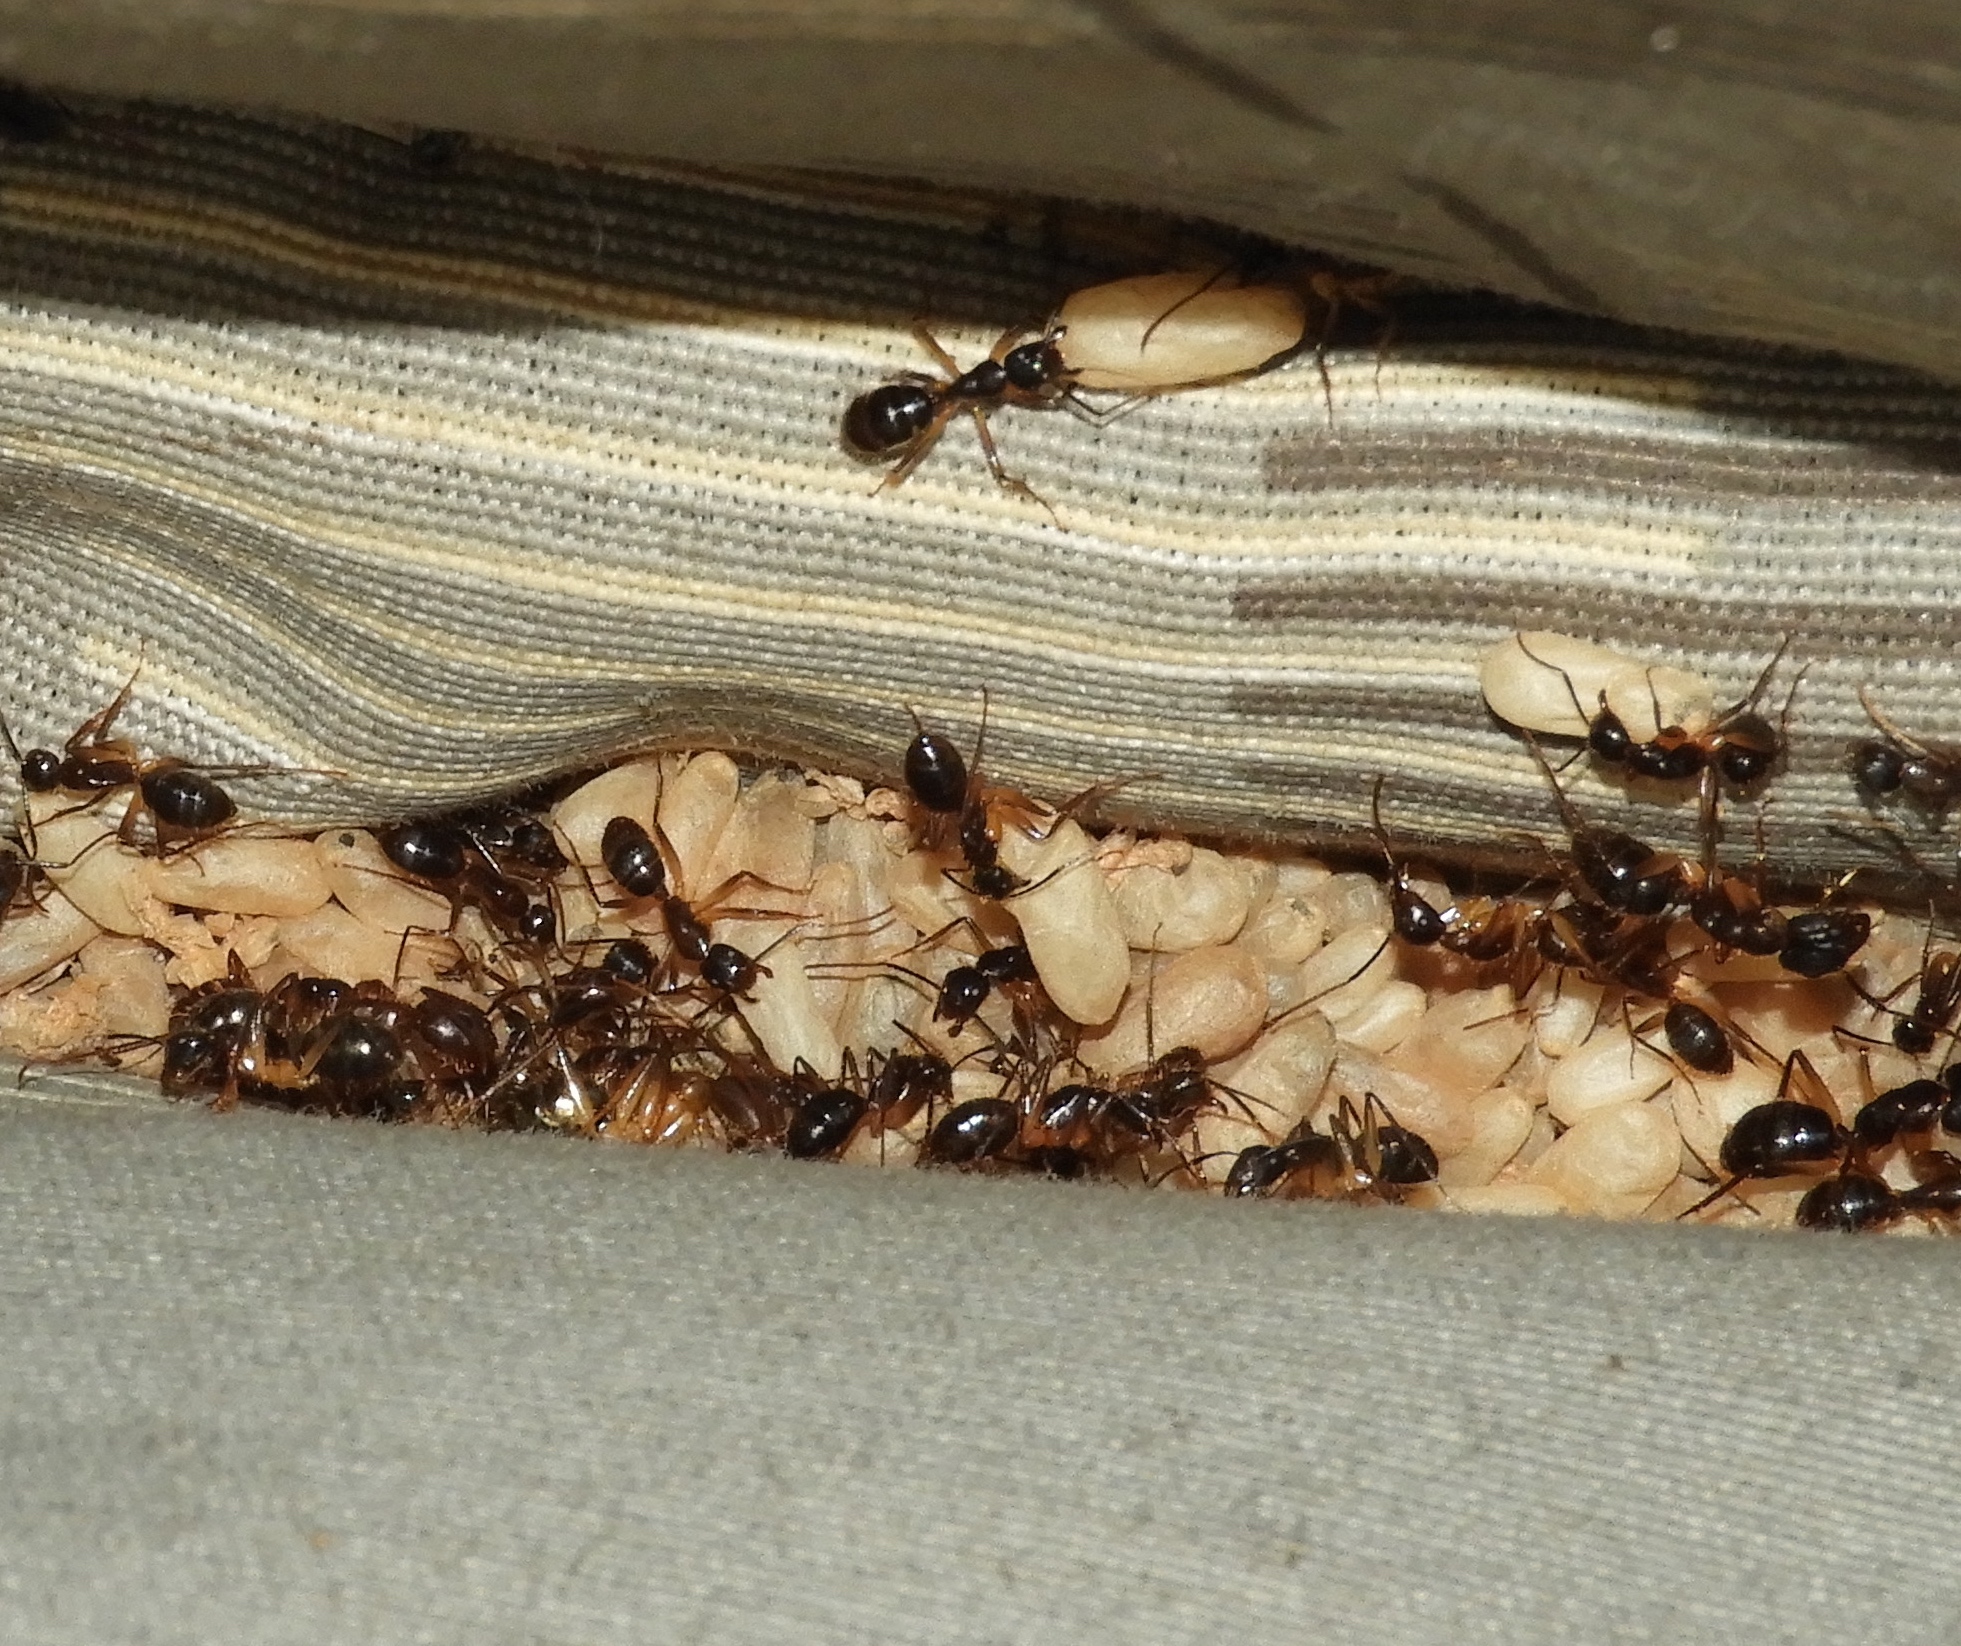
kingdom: Animalia
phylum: Arthropoda
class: Insecta
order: Hymenoptera
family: Formicidae
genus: Camponotus
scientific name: Camponotus
